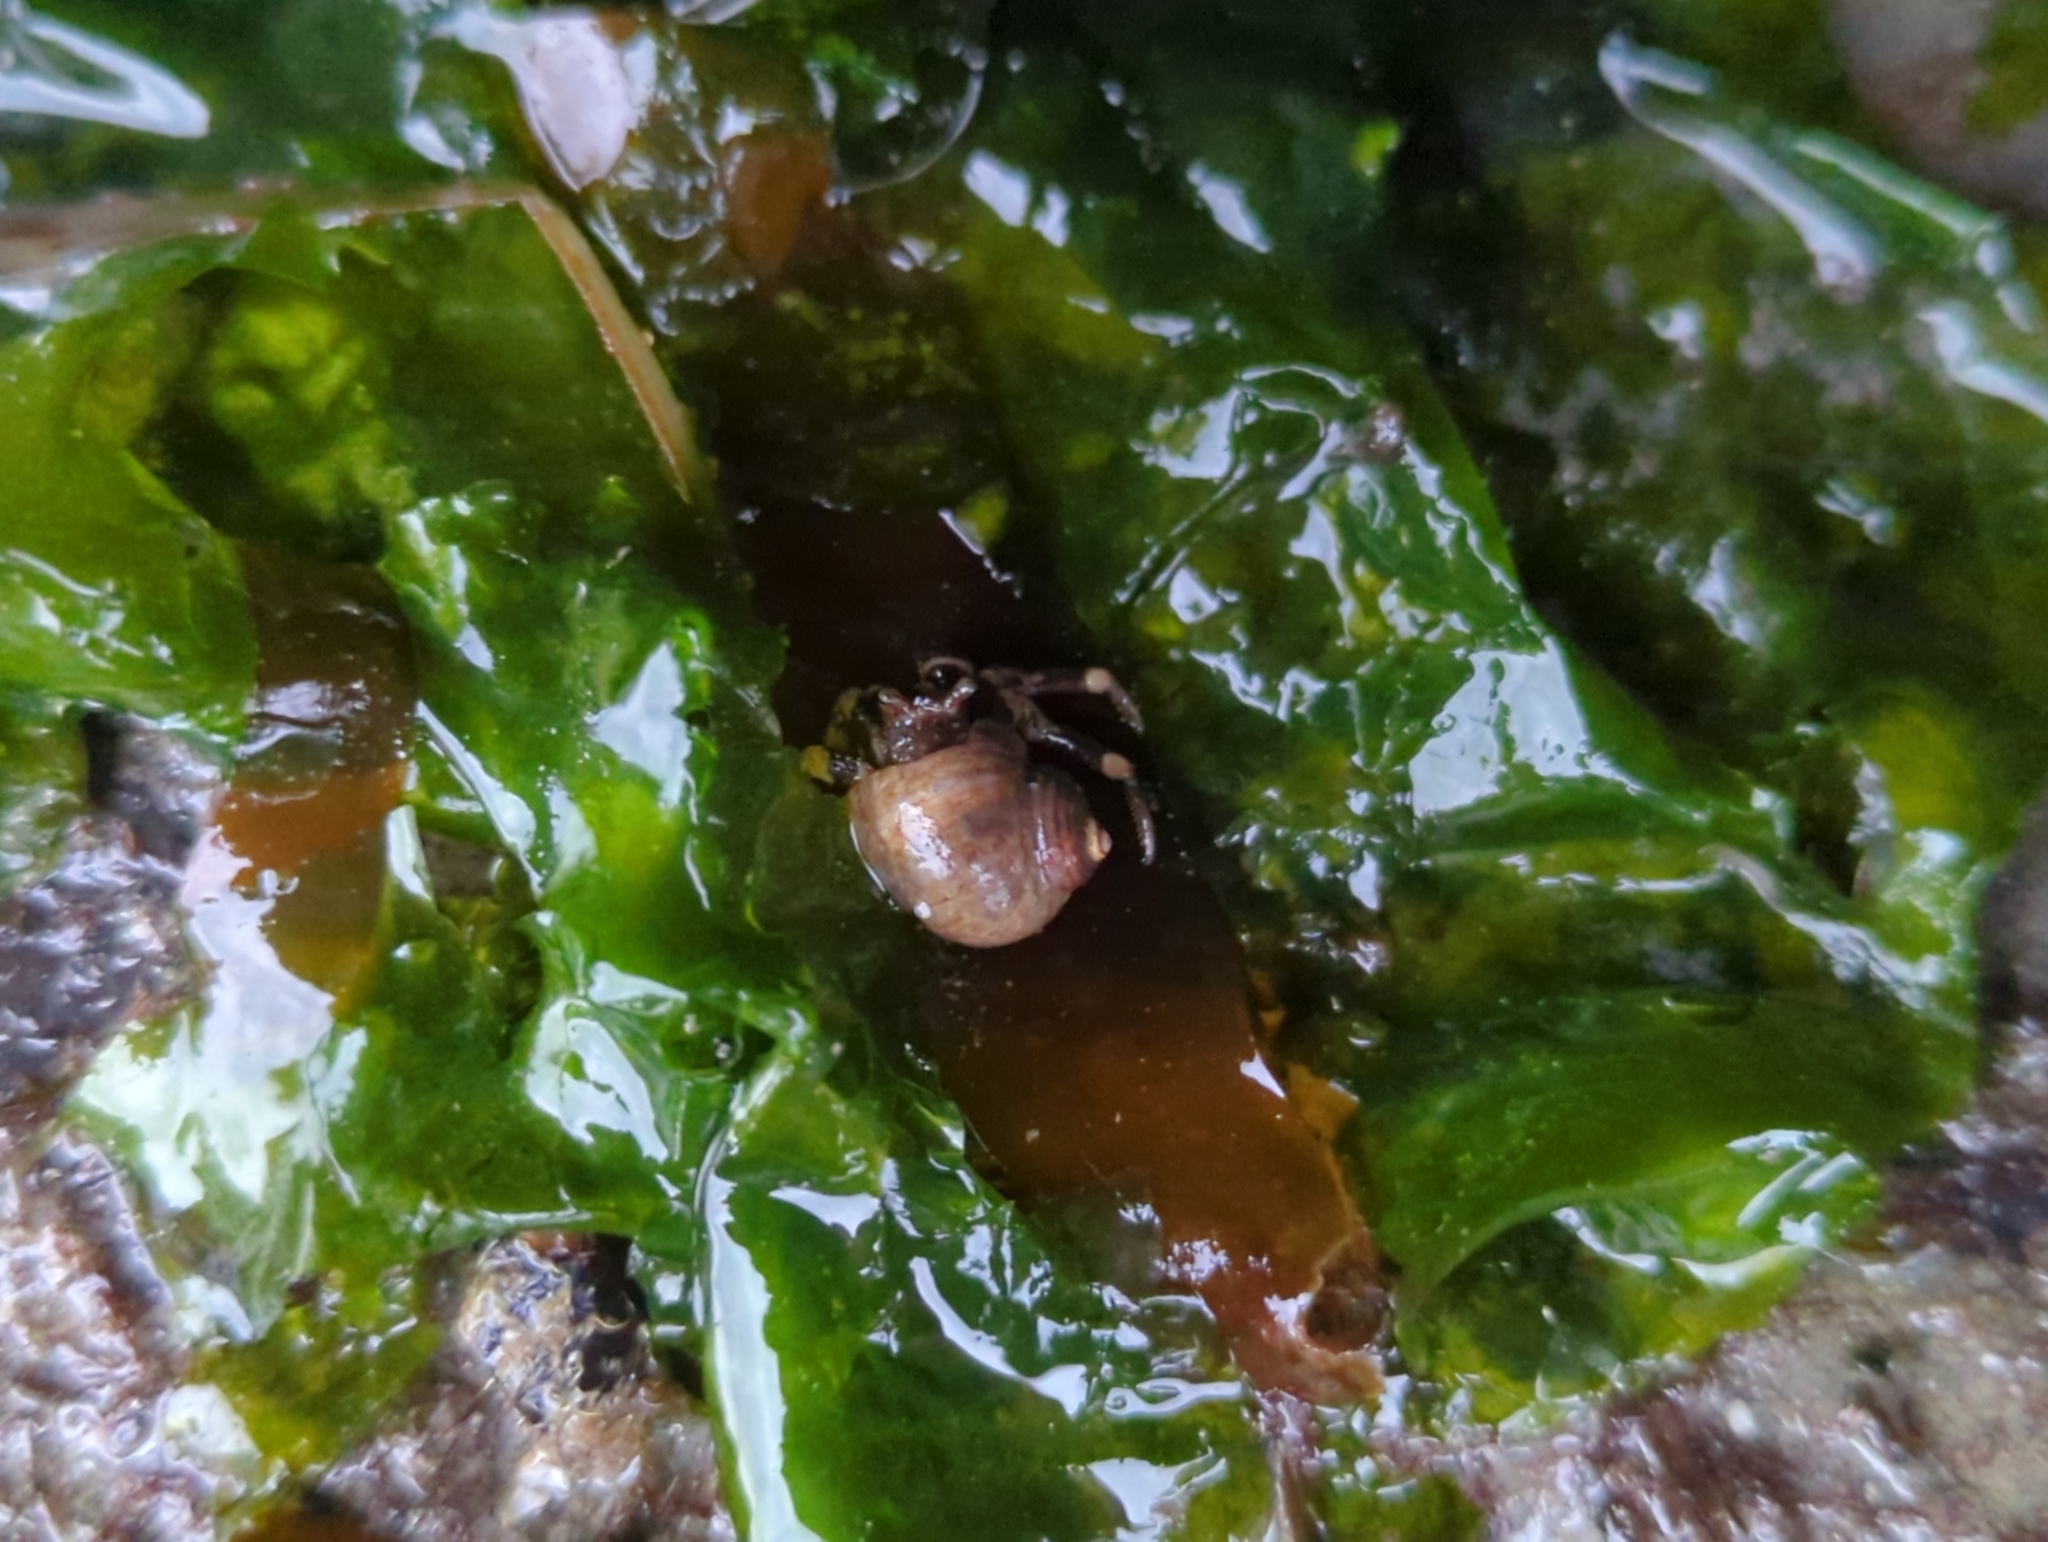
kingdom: Animalia
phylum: Arthropoda
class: Malacostraca
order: Decapoda
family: Paguridae
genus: Pagurus
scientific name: Pagurus hirsutiusculus
